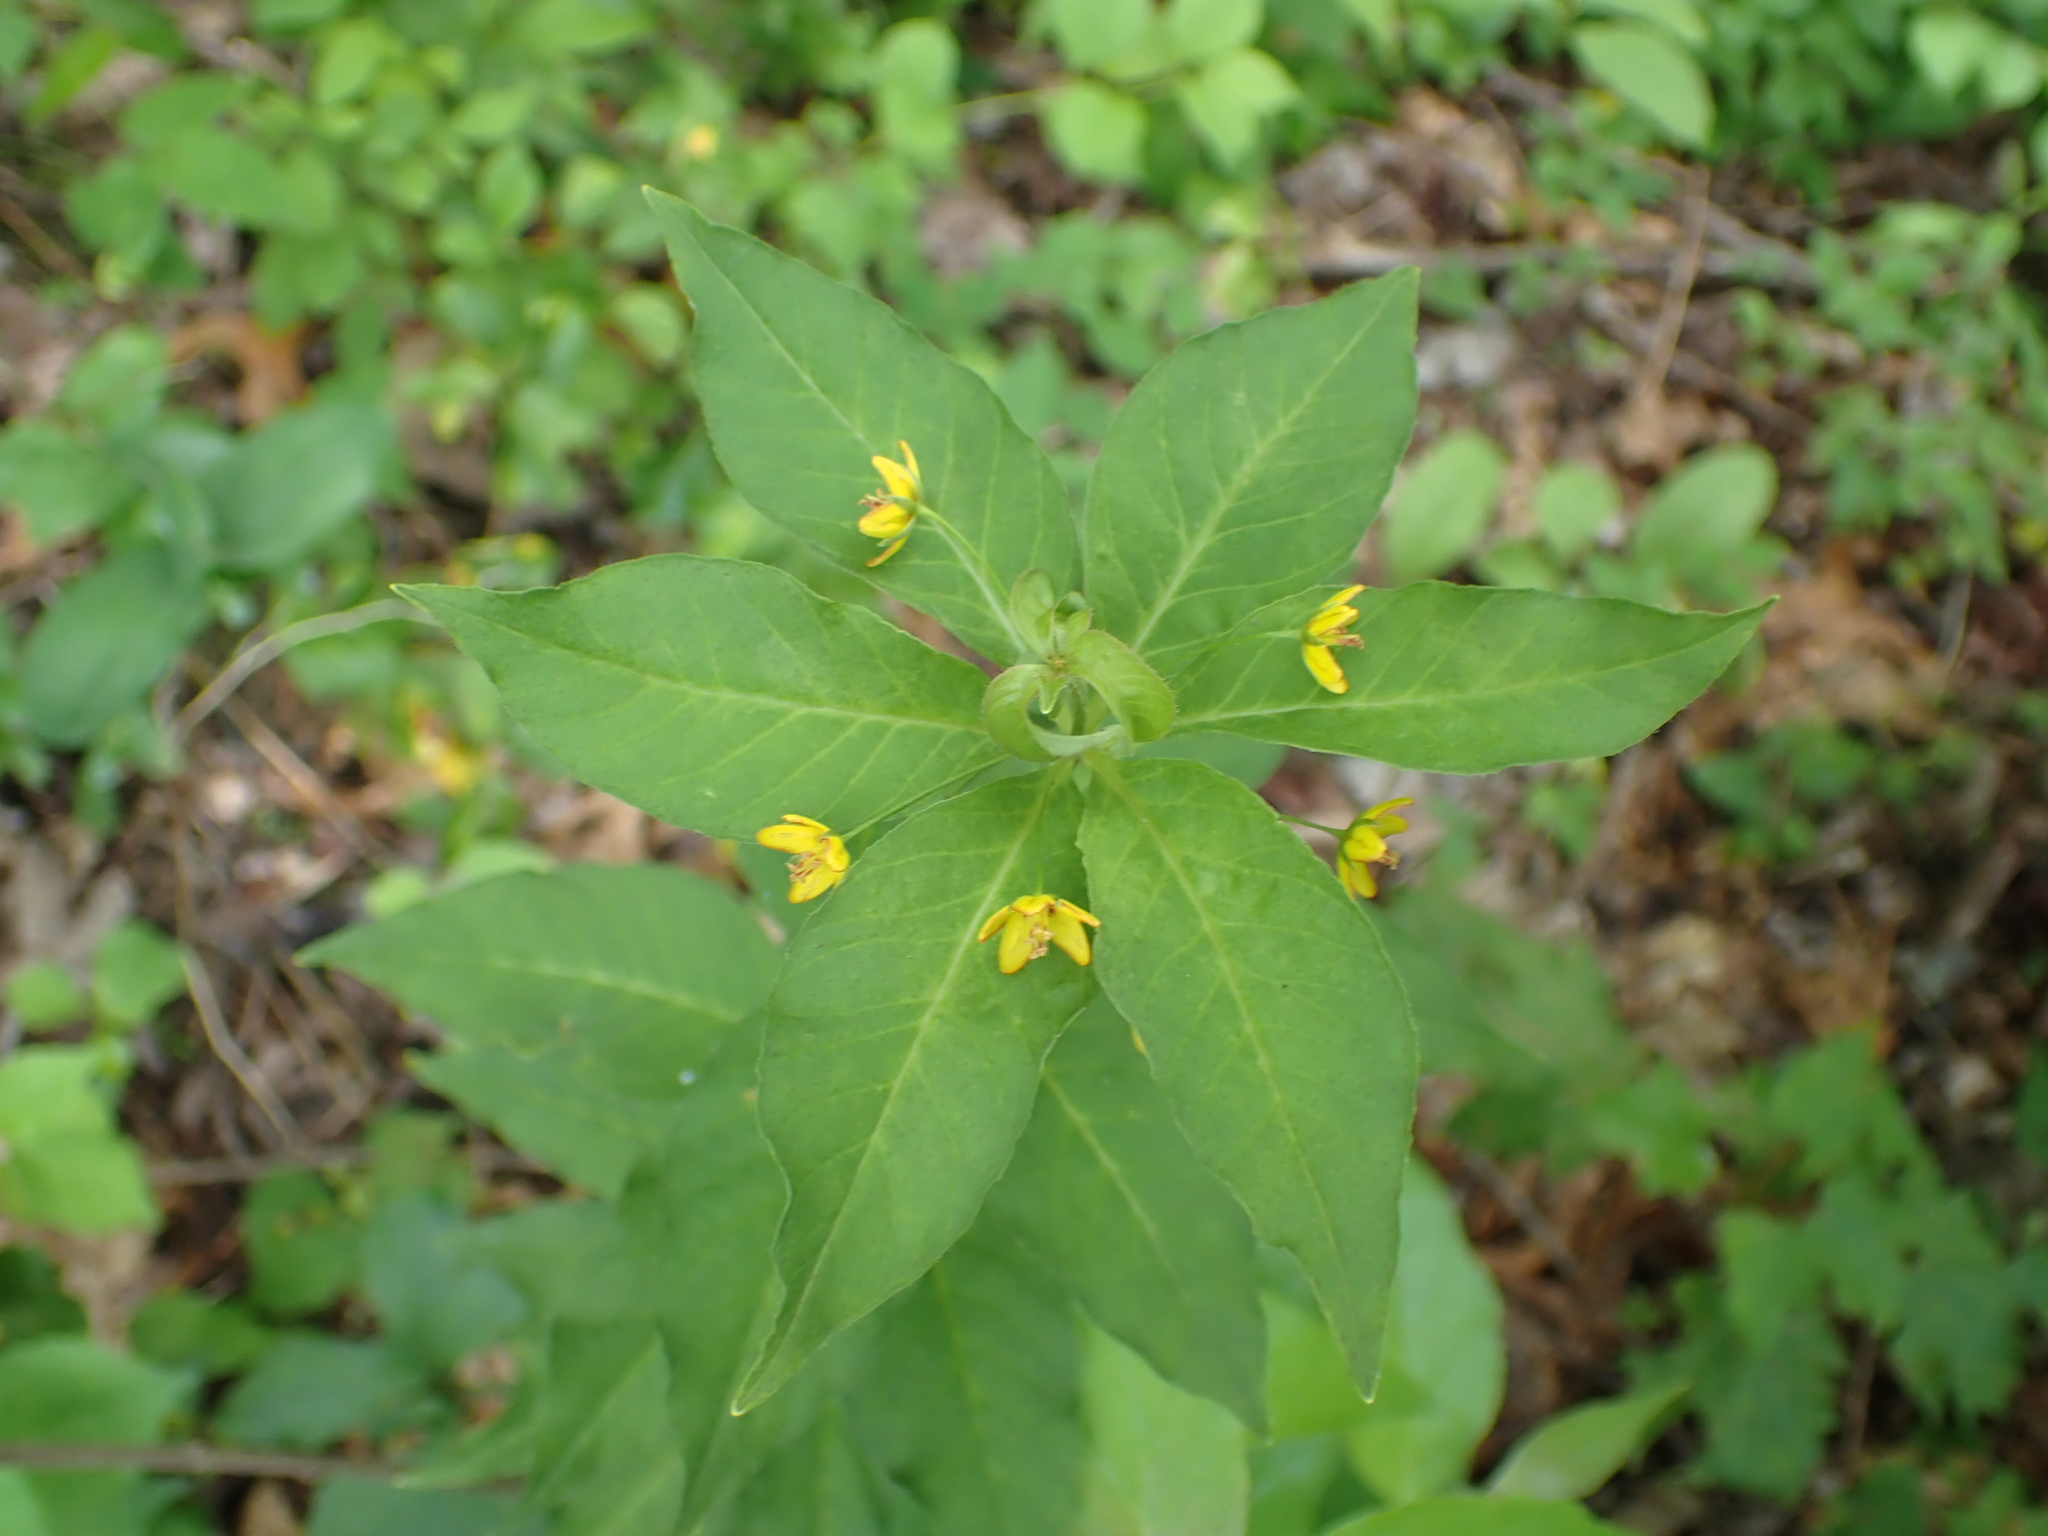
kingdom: Plantae
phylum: Tracheophyta
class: Magnoliopsida
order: Ericales
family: Primulaceae
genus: Lysimachia
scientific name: Lysimachia quadrifolia
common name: Whorled loosestrife
